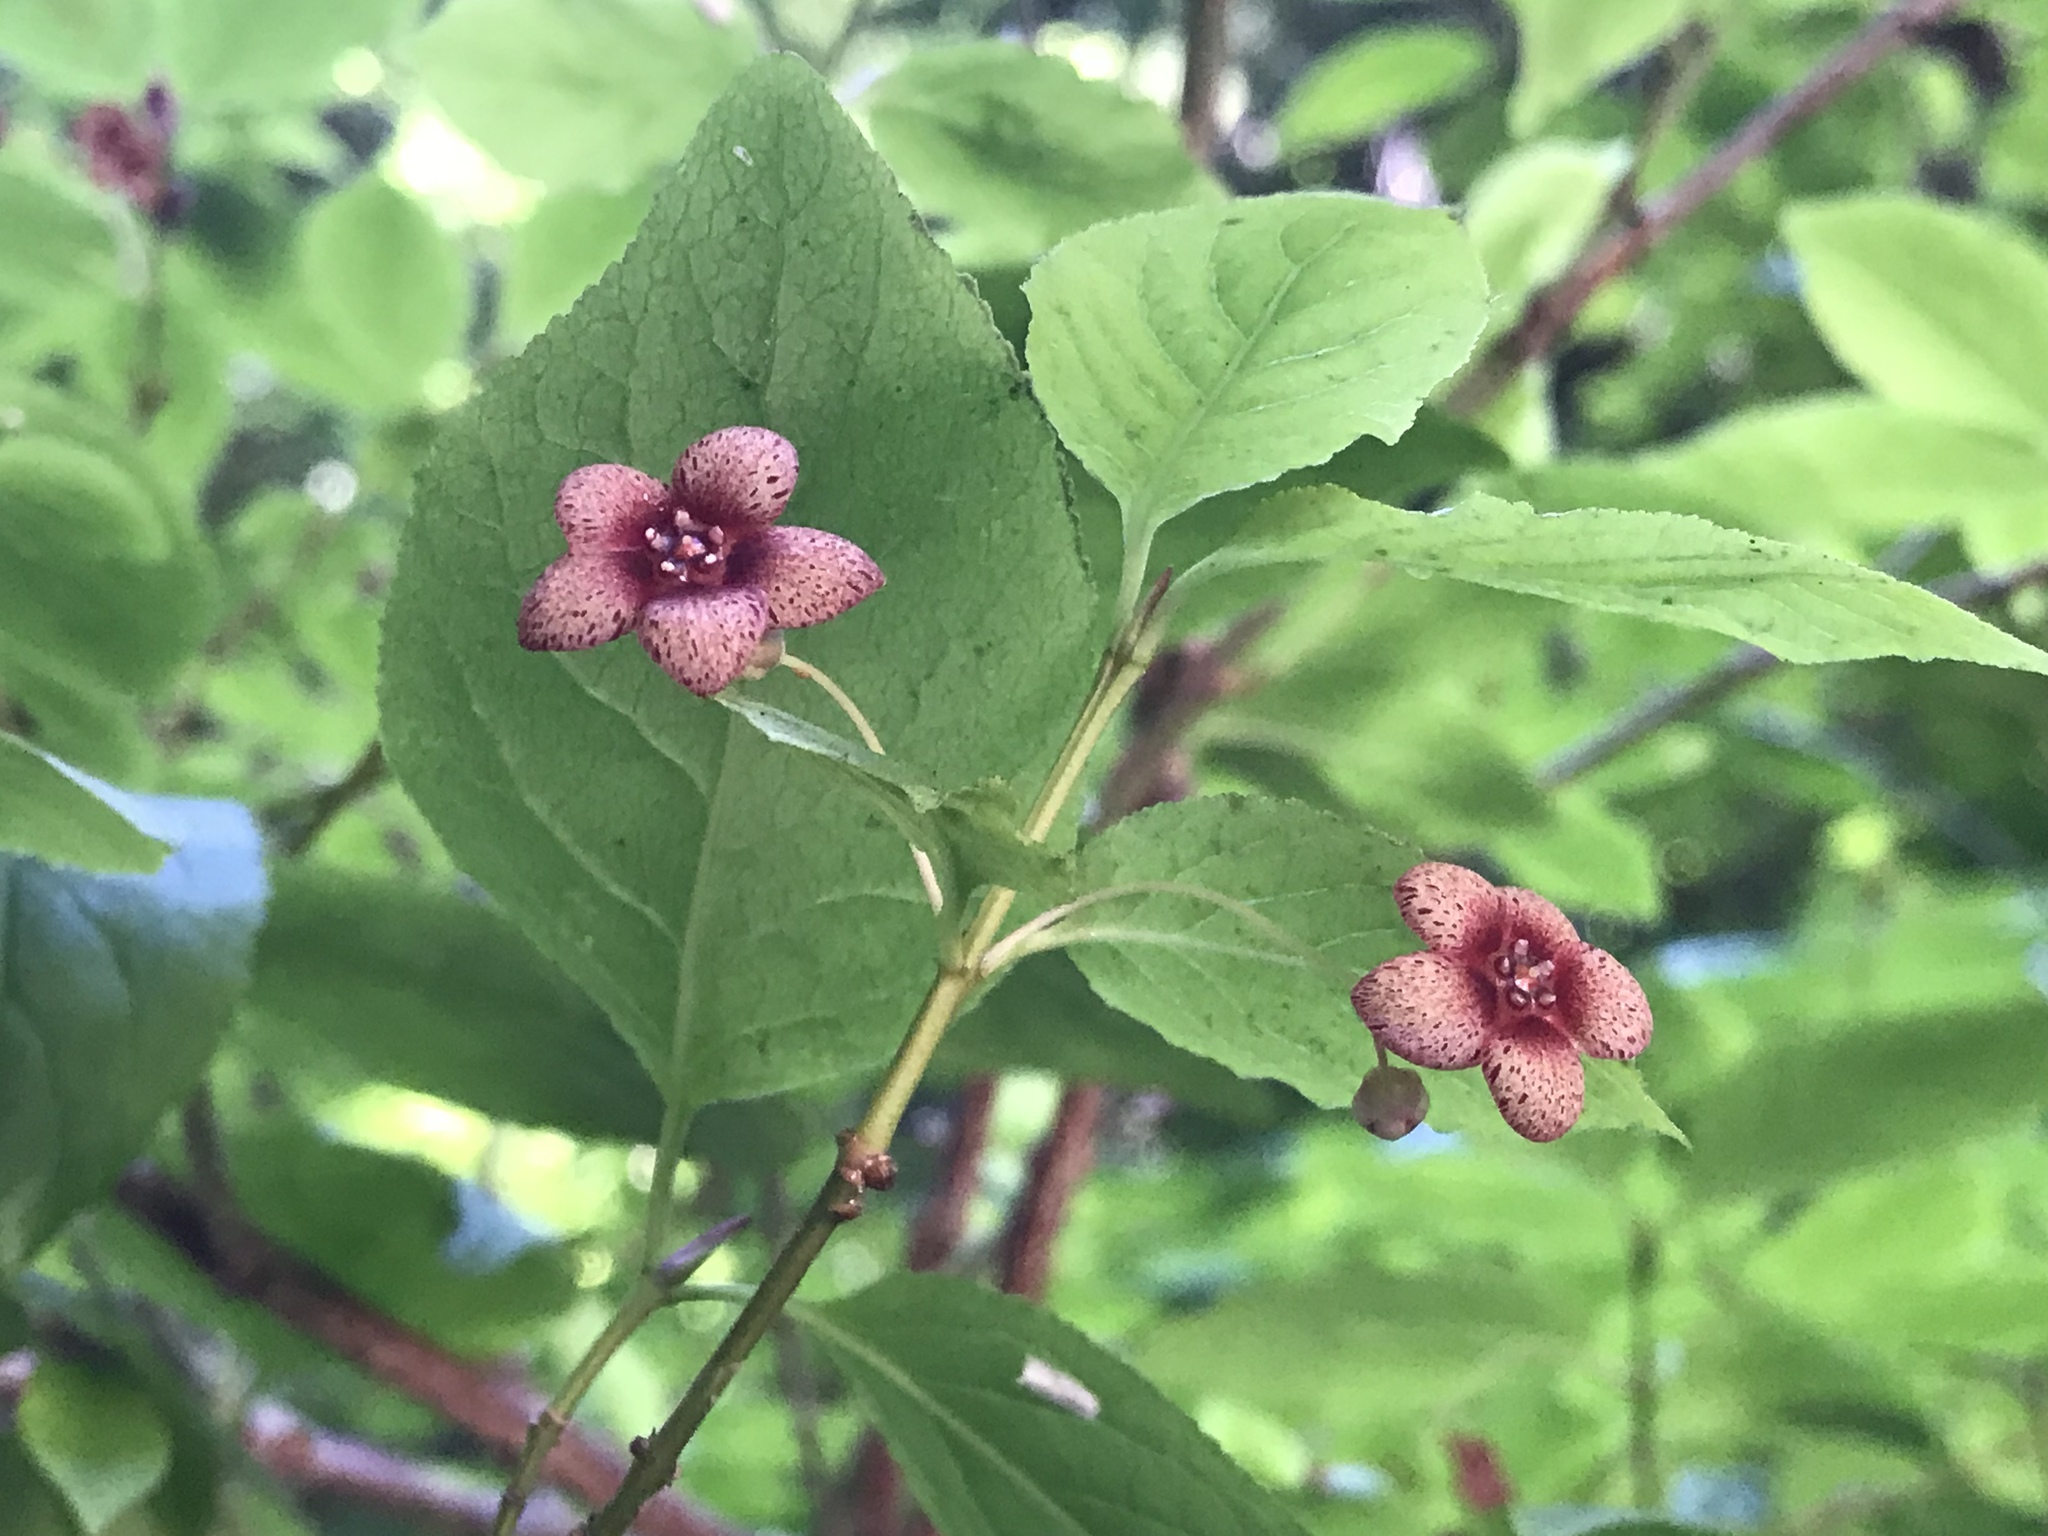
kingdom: Plantae
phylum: Tracheophyta
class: Magnoliopsida
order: Celastrales
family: Celastraceae
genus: Euonymus
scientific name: Euonymus occidentalis
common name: Western burningbush
